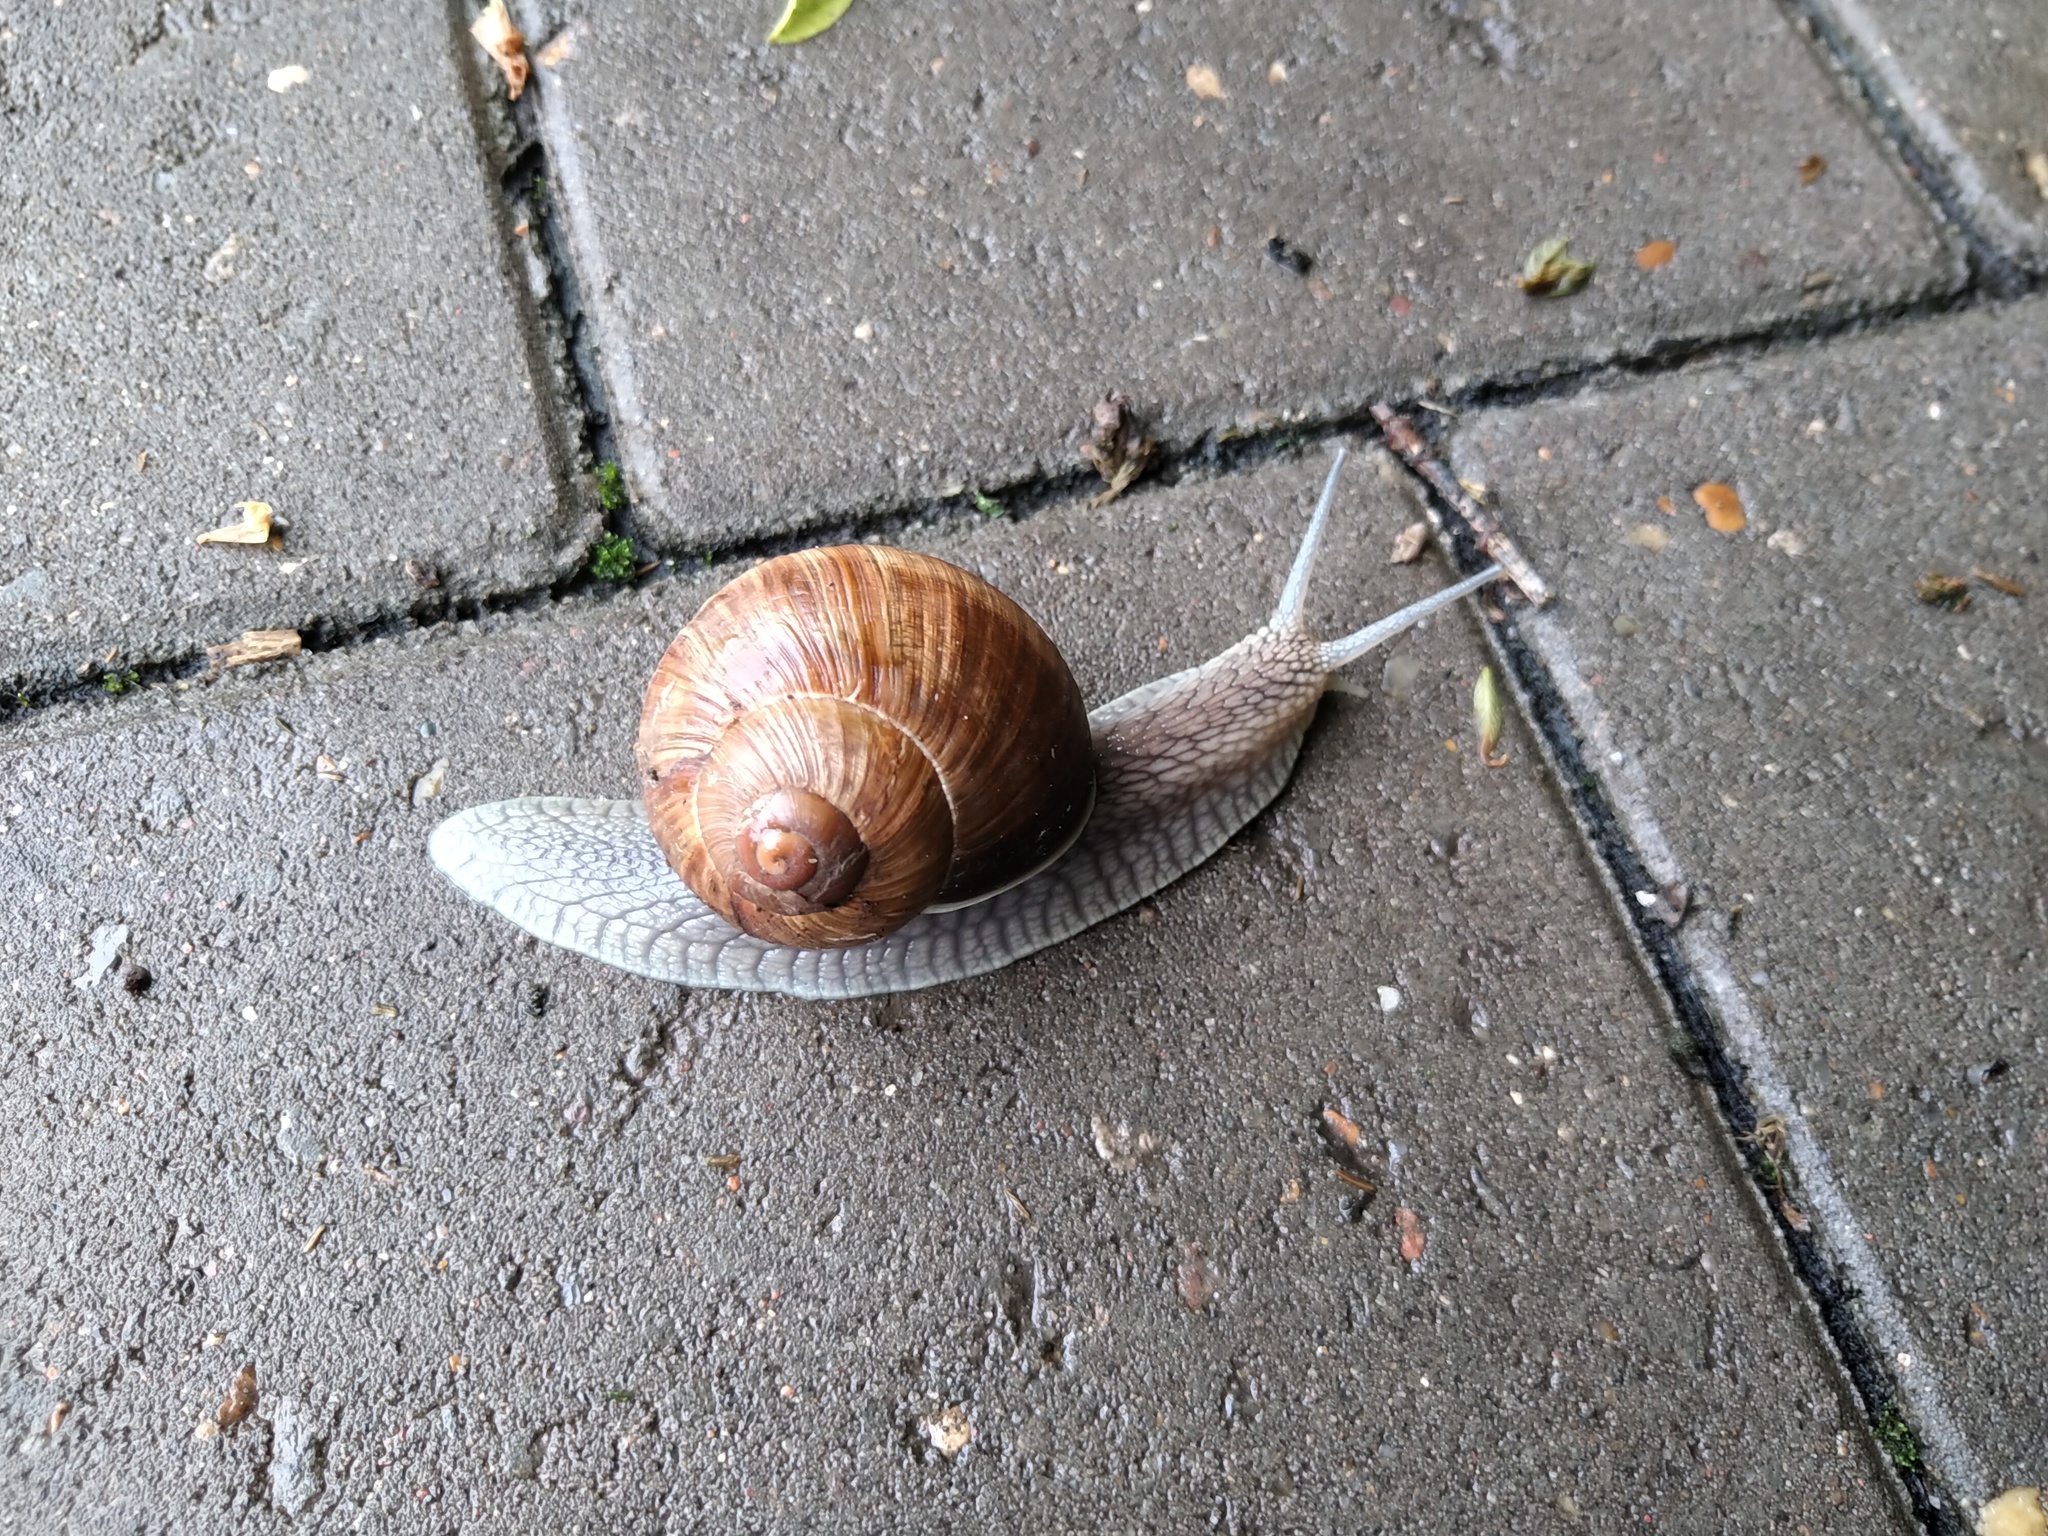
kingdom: Animalia
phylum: Mollusca
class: Gastropoda
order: Stylommatophora
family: Helicidae
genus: Helix
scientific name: Helix pomatia
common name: Roman snail
